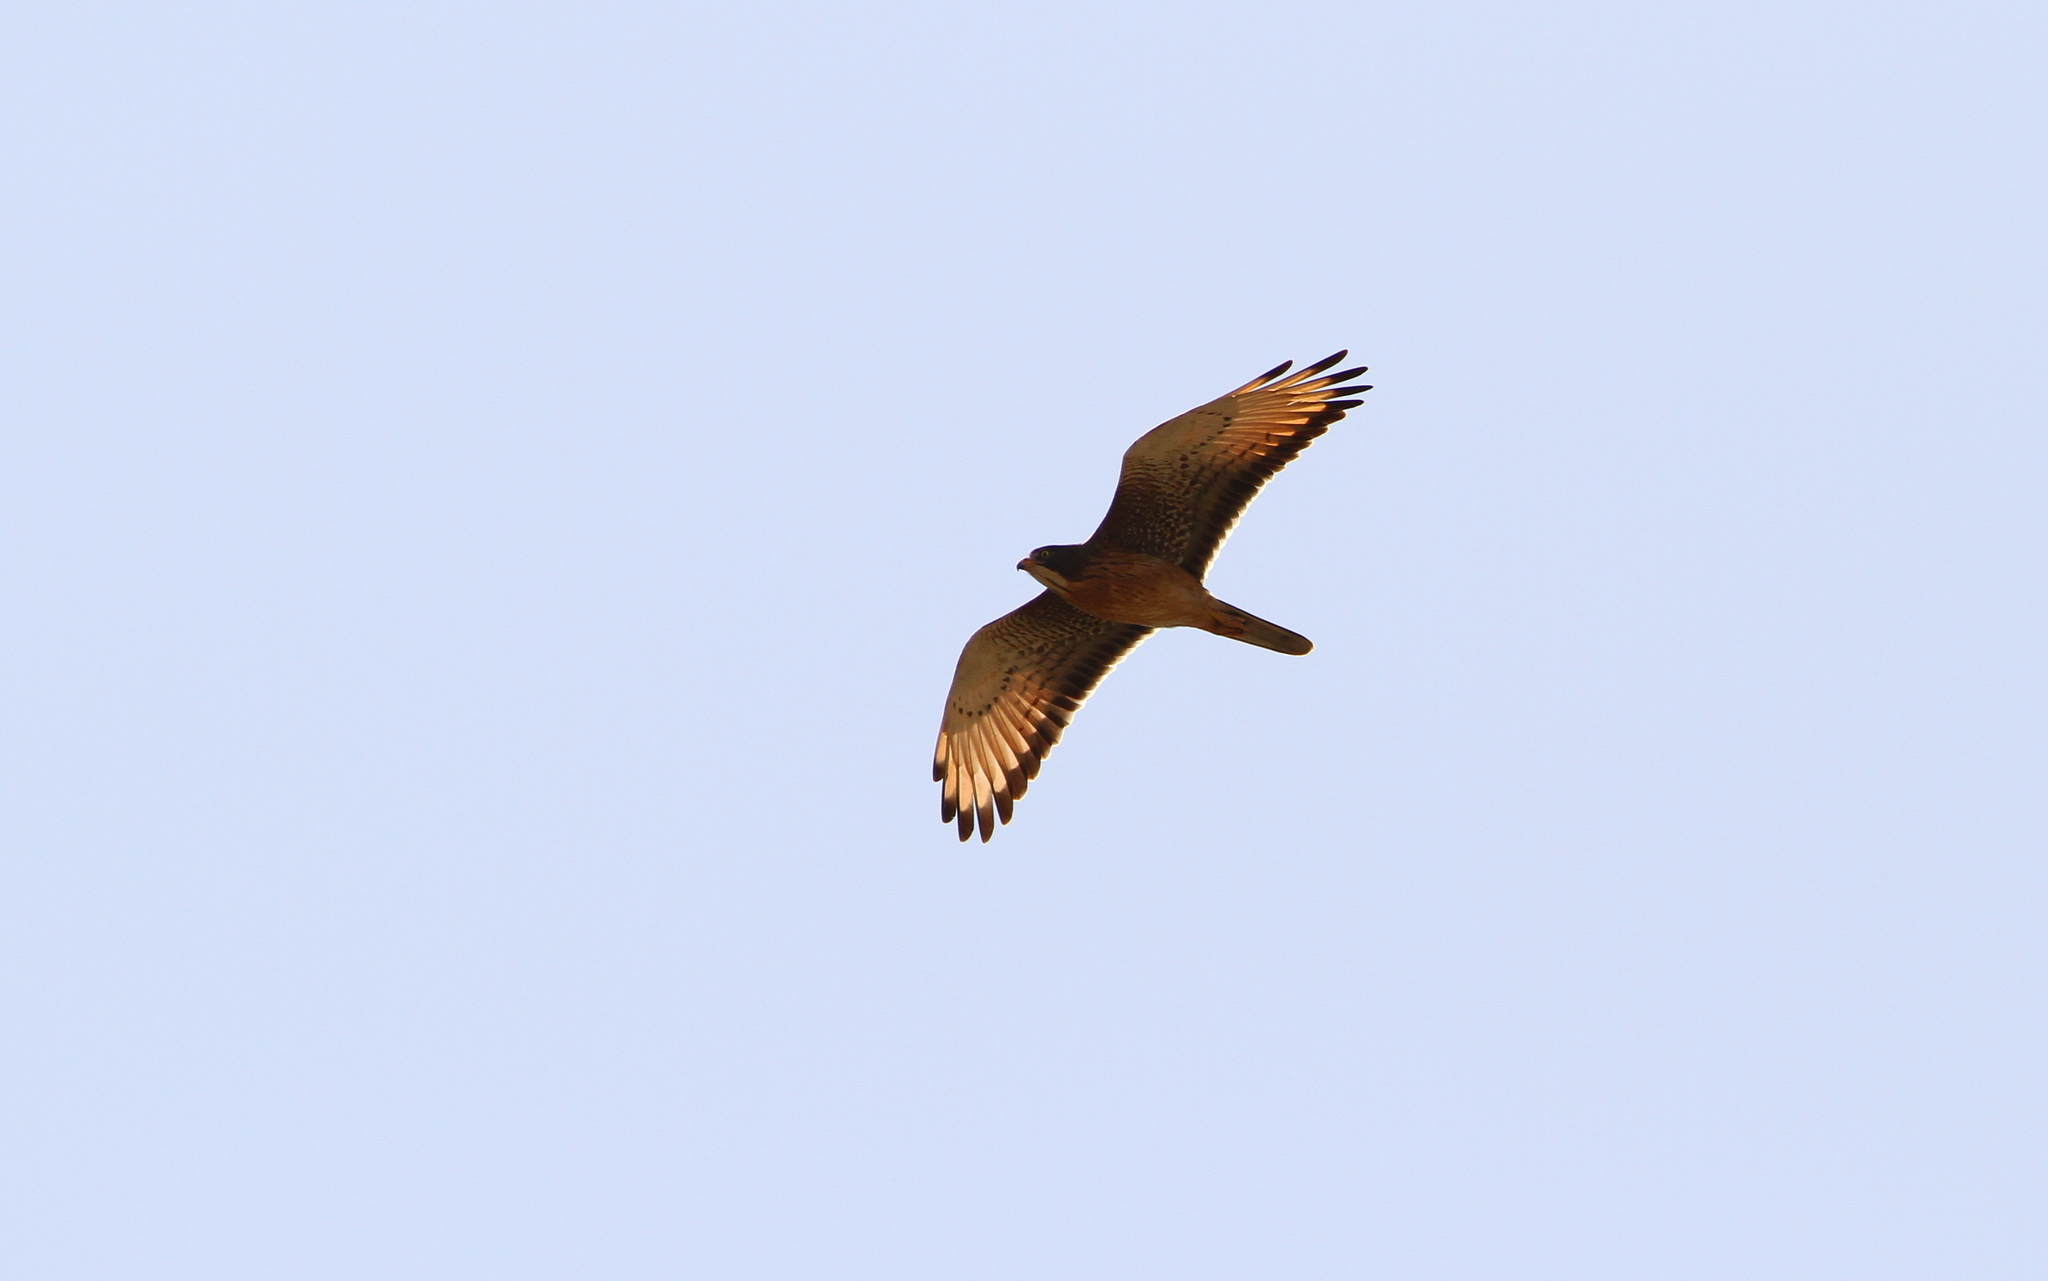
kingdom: Animalia
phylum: Chordata
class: Aves
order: Accipitriformes
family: Accipitridae
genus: Butastur
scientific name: Butastur rufipennis
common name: Grasshopper buzzard
